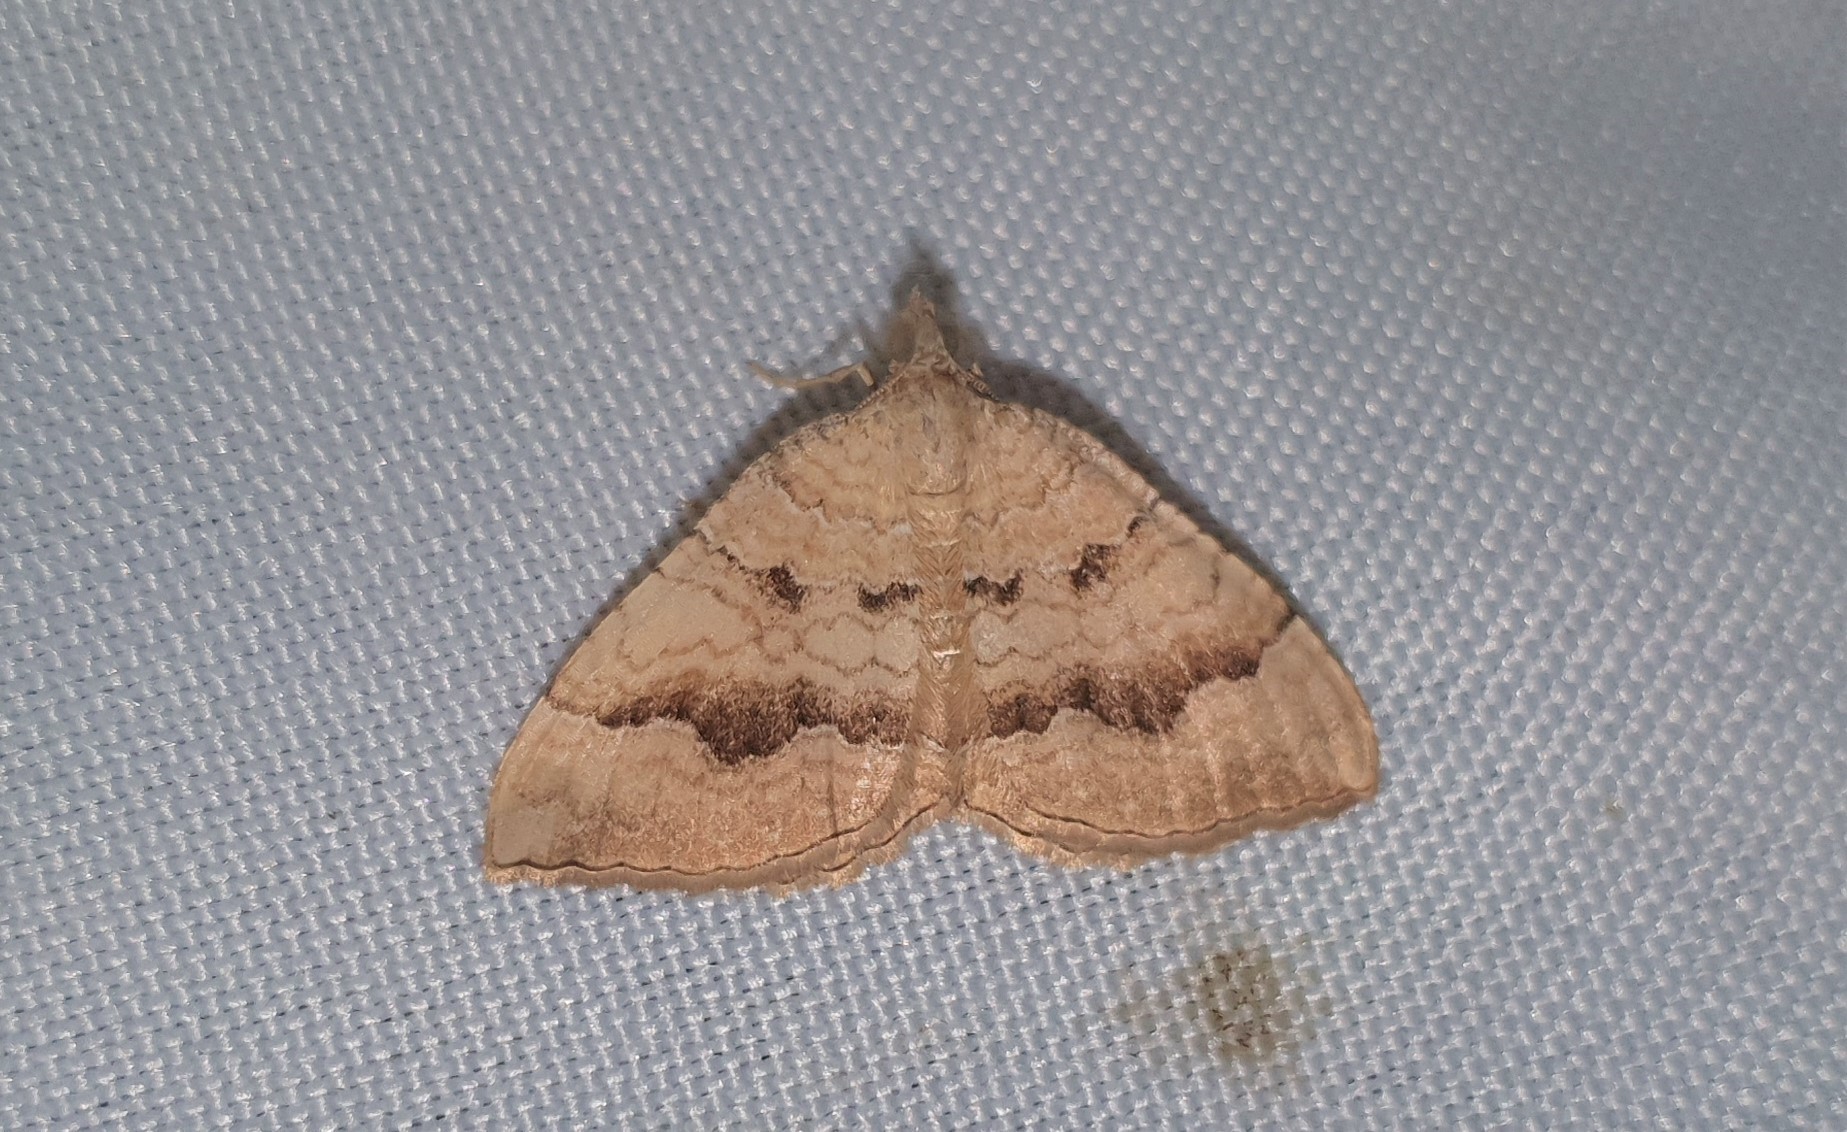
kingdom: Animalia
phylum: Arthropoda
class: Insecta
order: Lepidoptera
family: Geometridae
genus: Camptogramma
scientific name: Camptogramma bilineata
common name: Yellow shell
